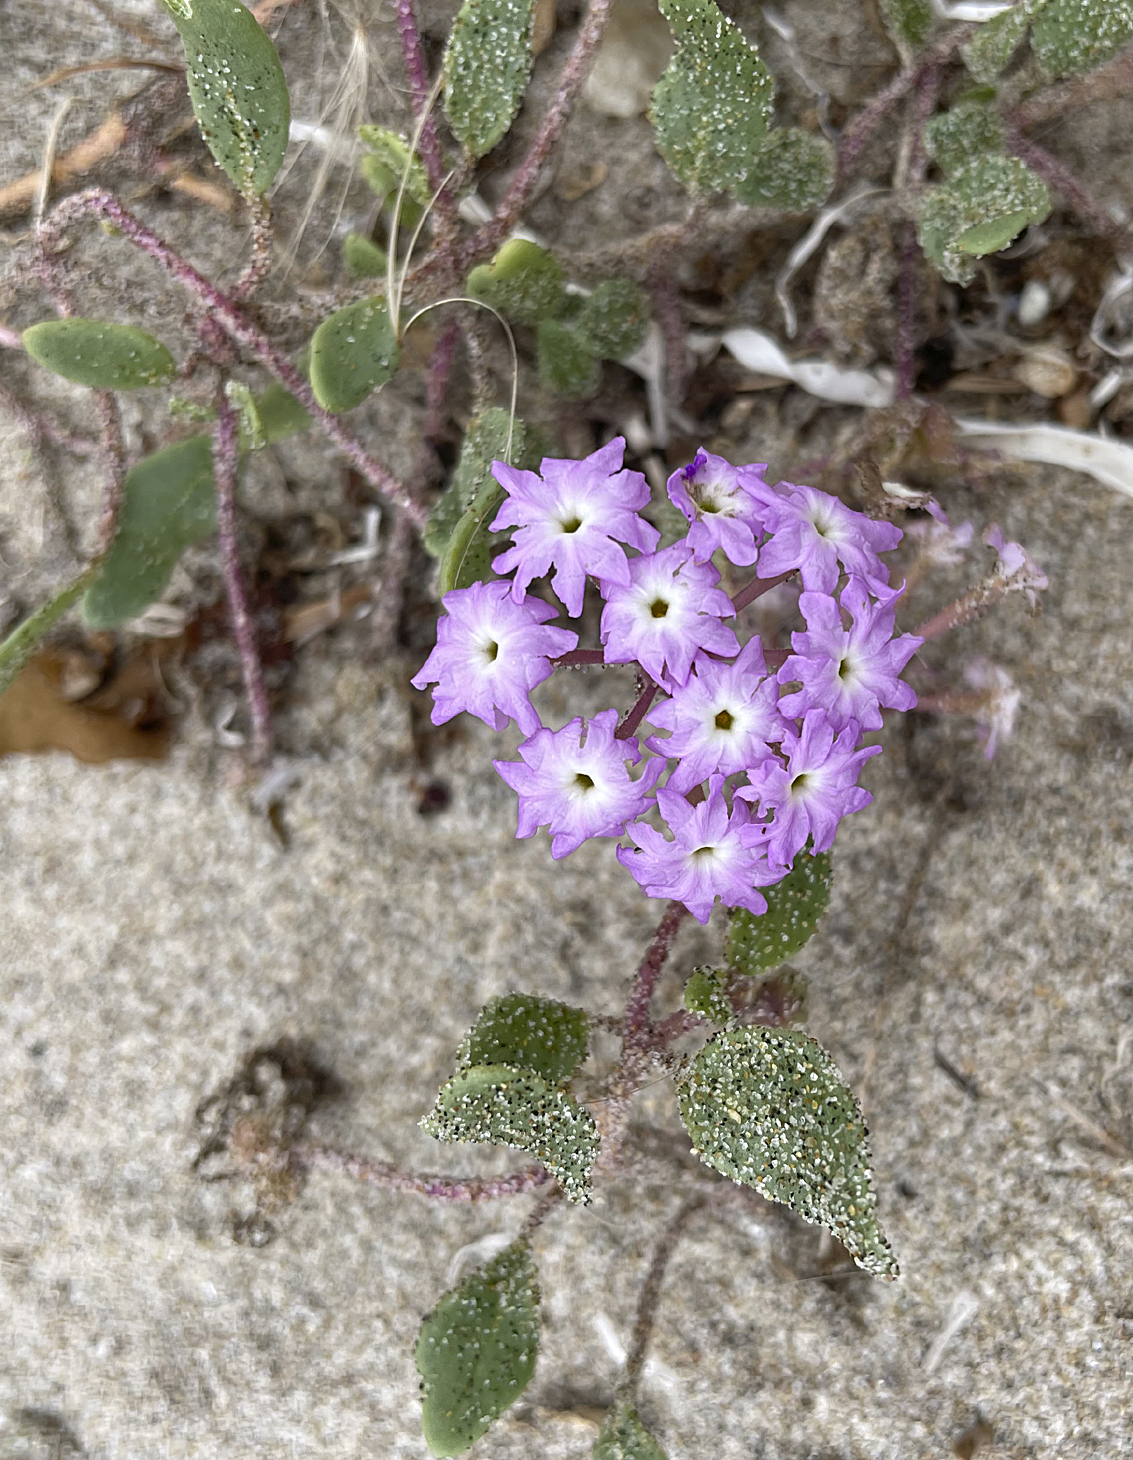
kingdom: Plantae
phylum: Tracheophyta
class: Magnoliopsida
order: Caryophyllales
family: Nyctaginaceae
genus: Abronia
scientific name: Abronia umbellata
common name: Sand-verbena
